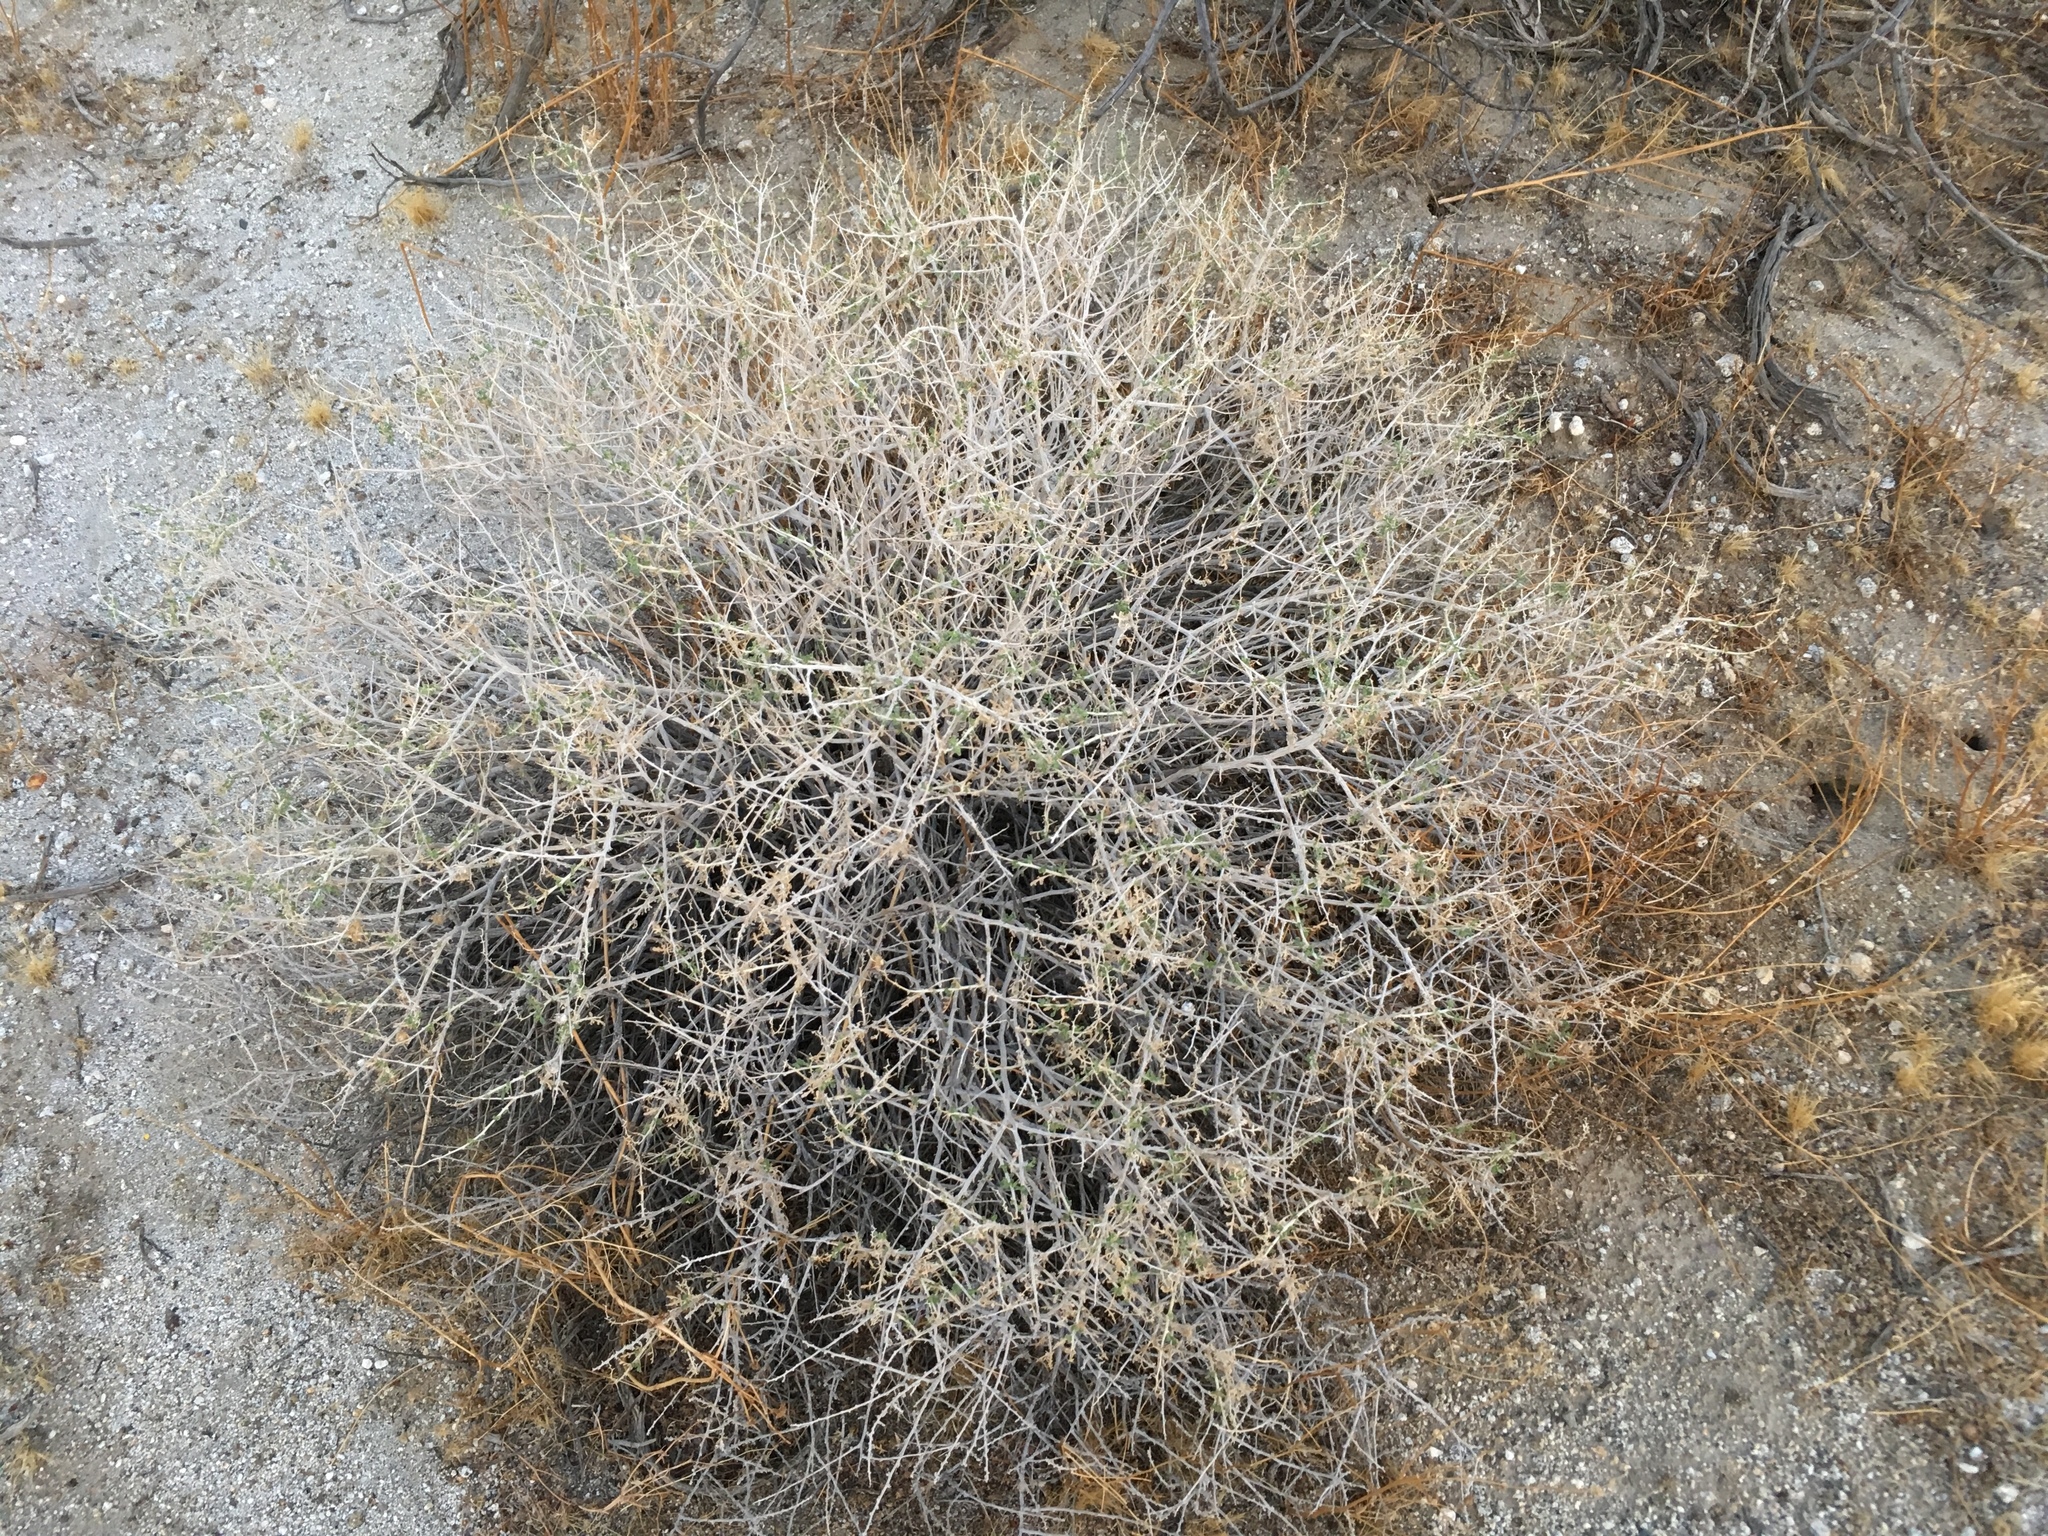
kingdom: Plantae
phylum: Tracheophyta
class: Magnoliopsida
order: Asterales
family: Asteraceae
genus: Ambrosia
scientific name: Ambrosia dumosa
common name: Bur-sage
